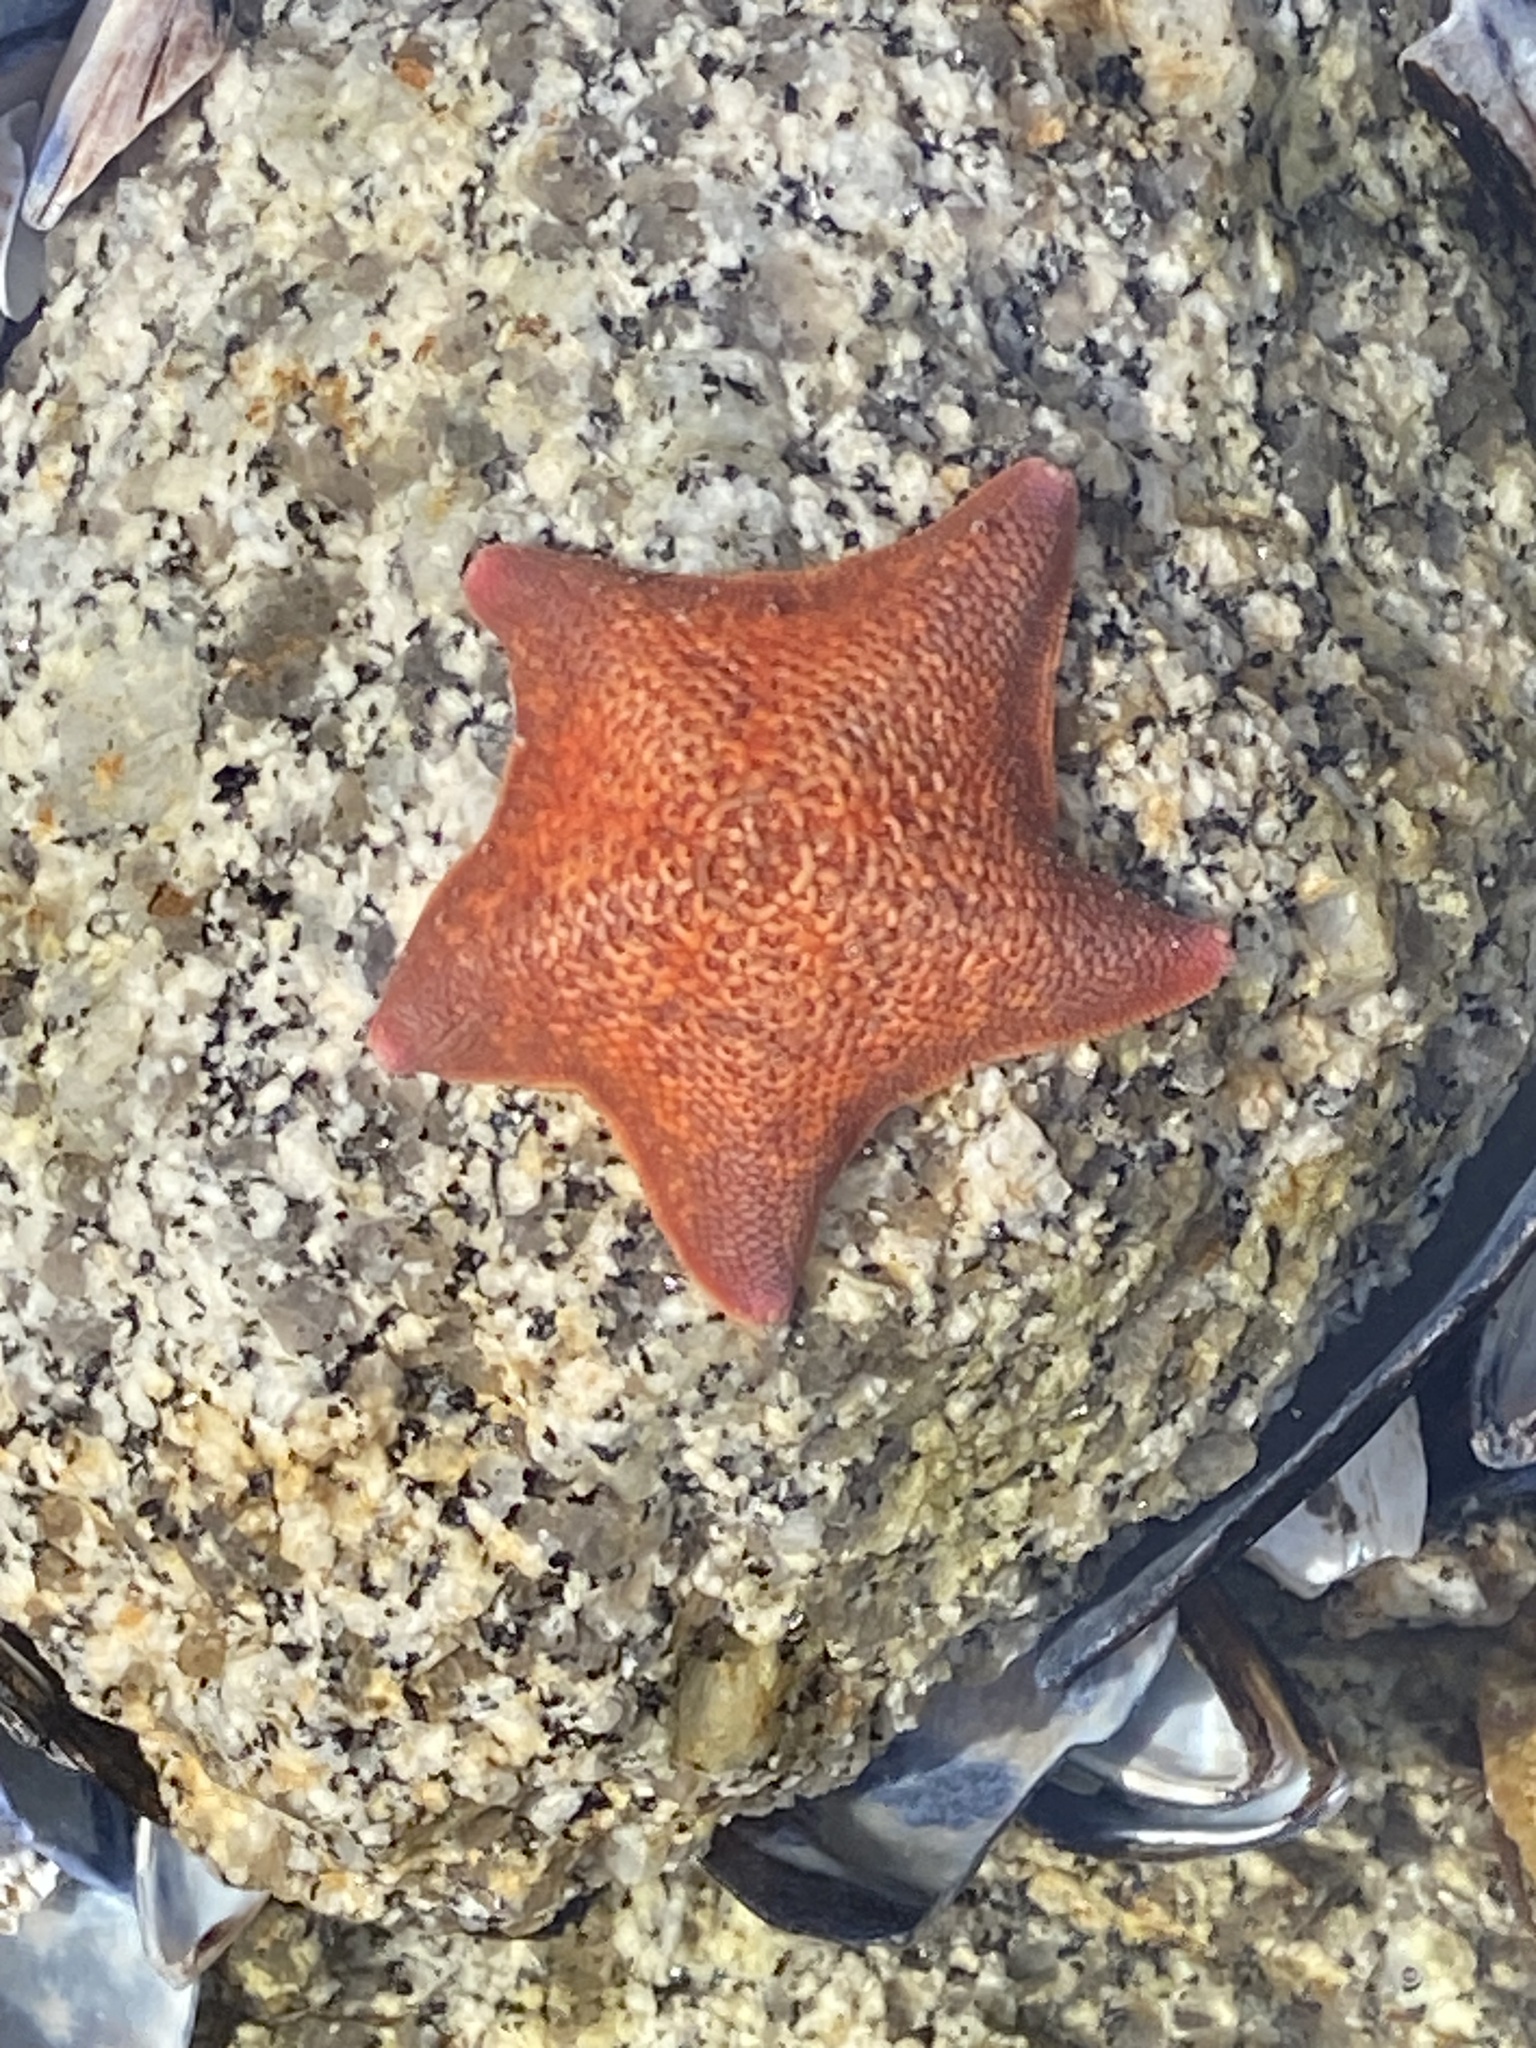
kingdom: Animalia
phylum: Echinodermata
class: Asteroidea
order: Valvatida
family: Asterinidae
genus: Patiria
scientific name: Patiria miniata
